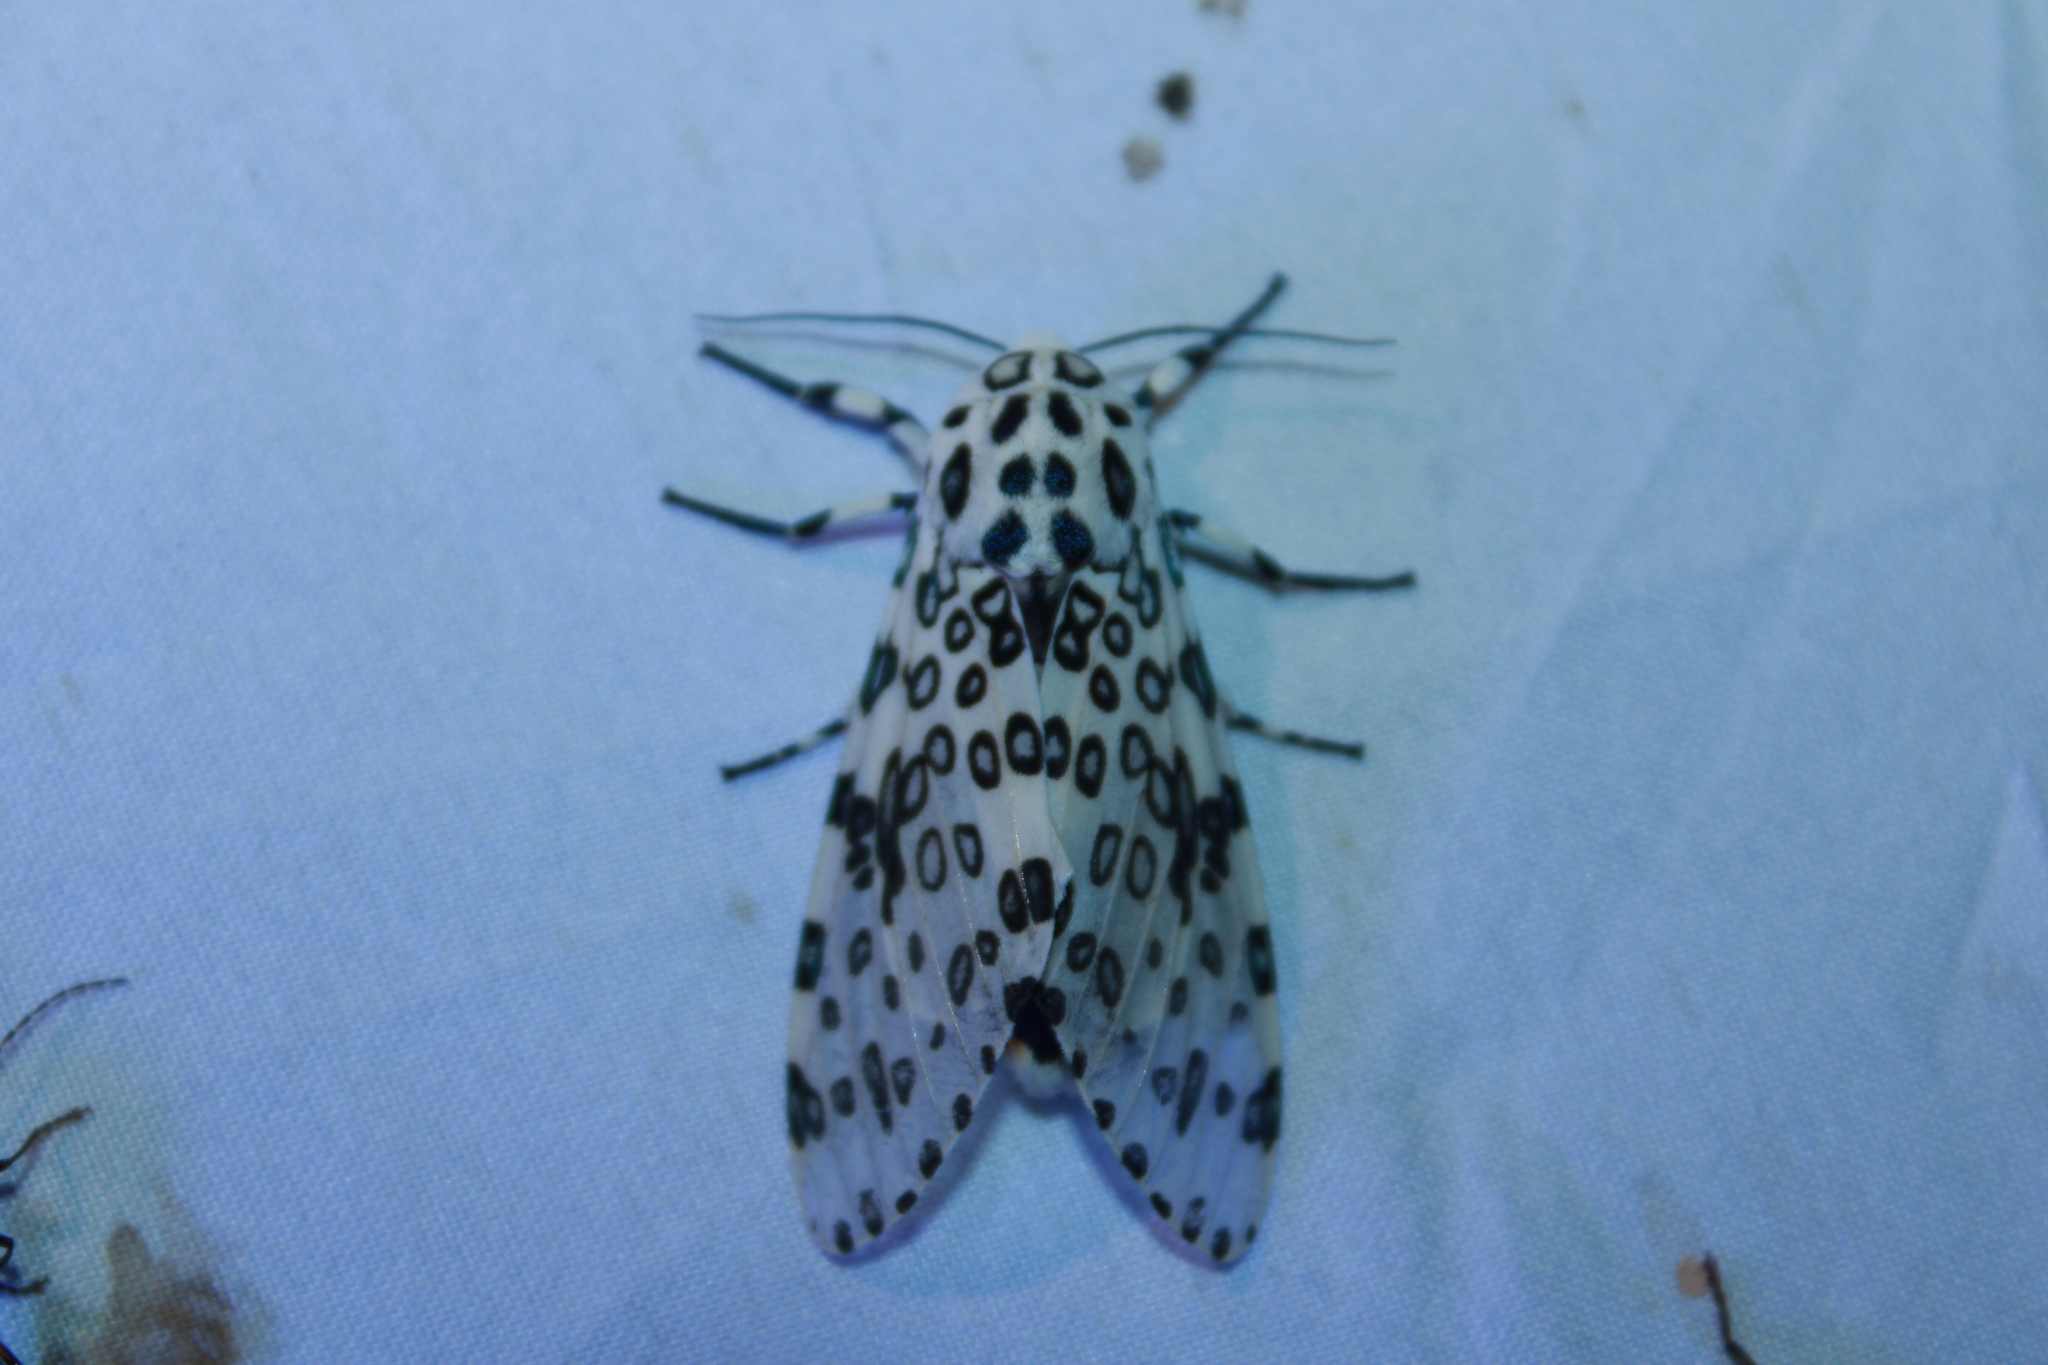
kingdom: Animalia
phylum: Arthropoda
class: Insecta
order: Lepidoptera
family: Erebidae
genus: Hypercompe
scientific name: Hypercompe scribonia
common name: Giant leopard moth
